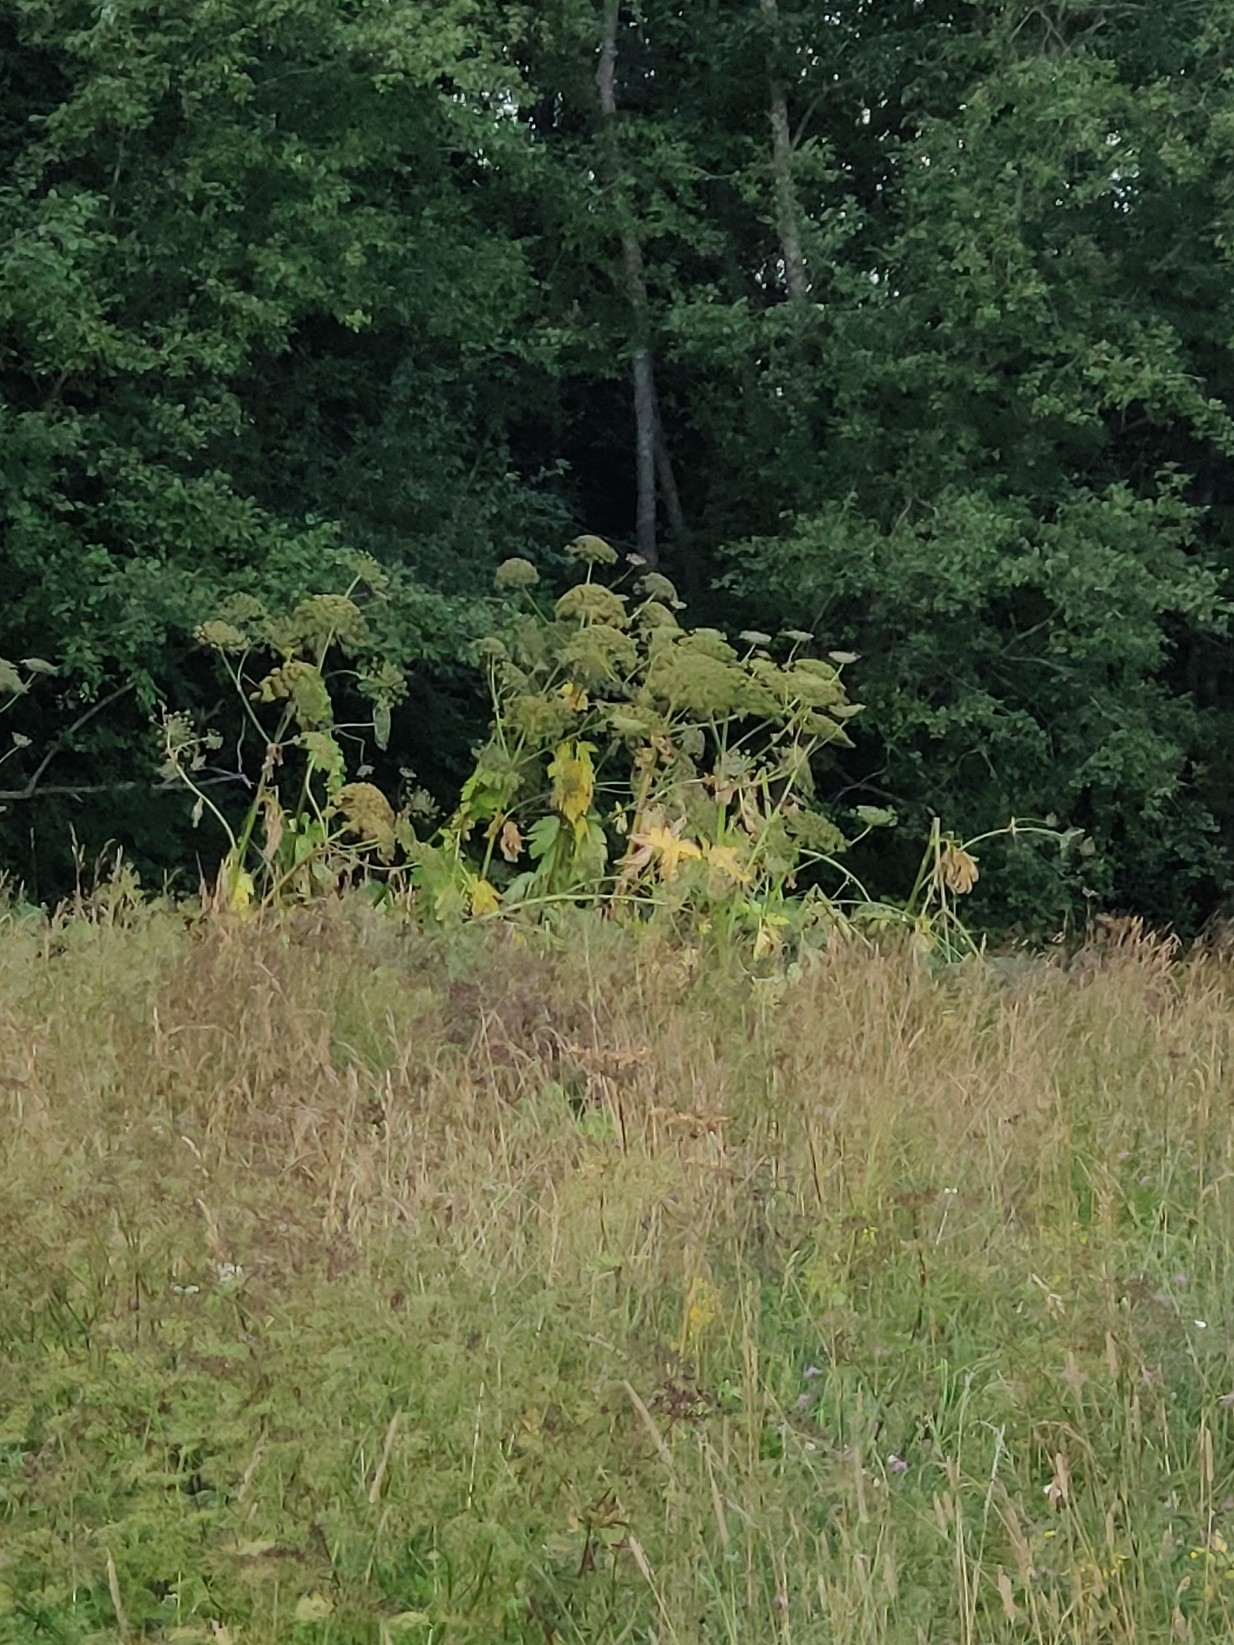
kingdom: Plantae
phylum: Tracheophyta
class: Magnoliopsida
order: Apiales
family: Apiaceae
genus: Heracleum
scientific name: Heracleum sosnowskyi
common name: Sosnowsky's hogweed
